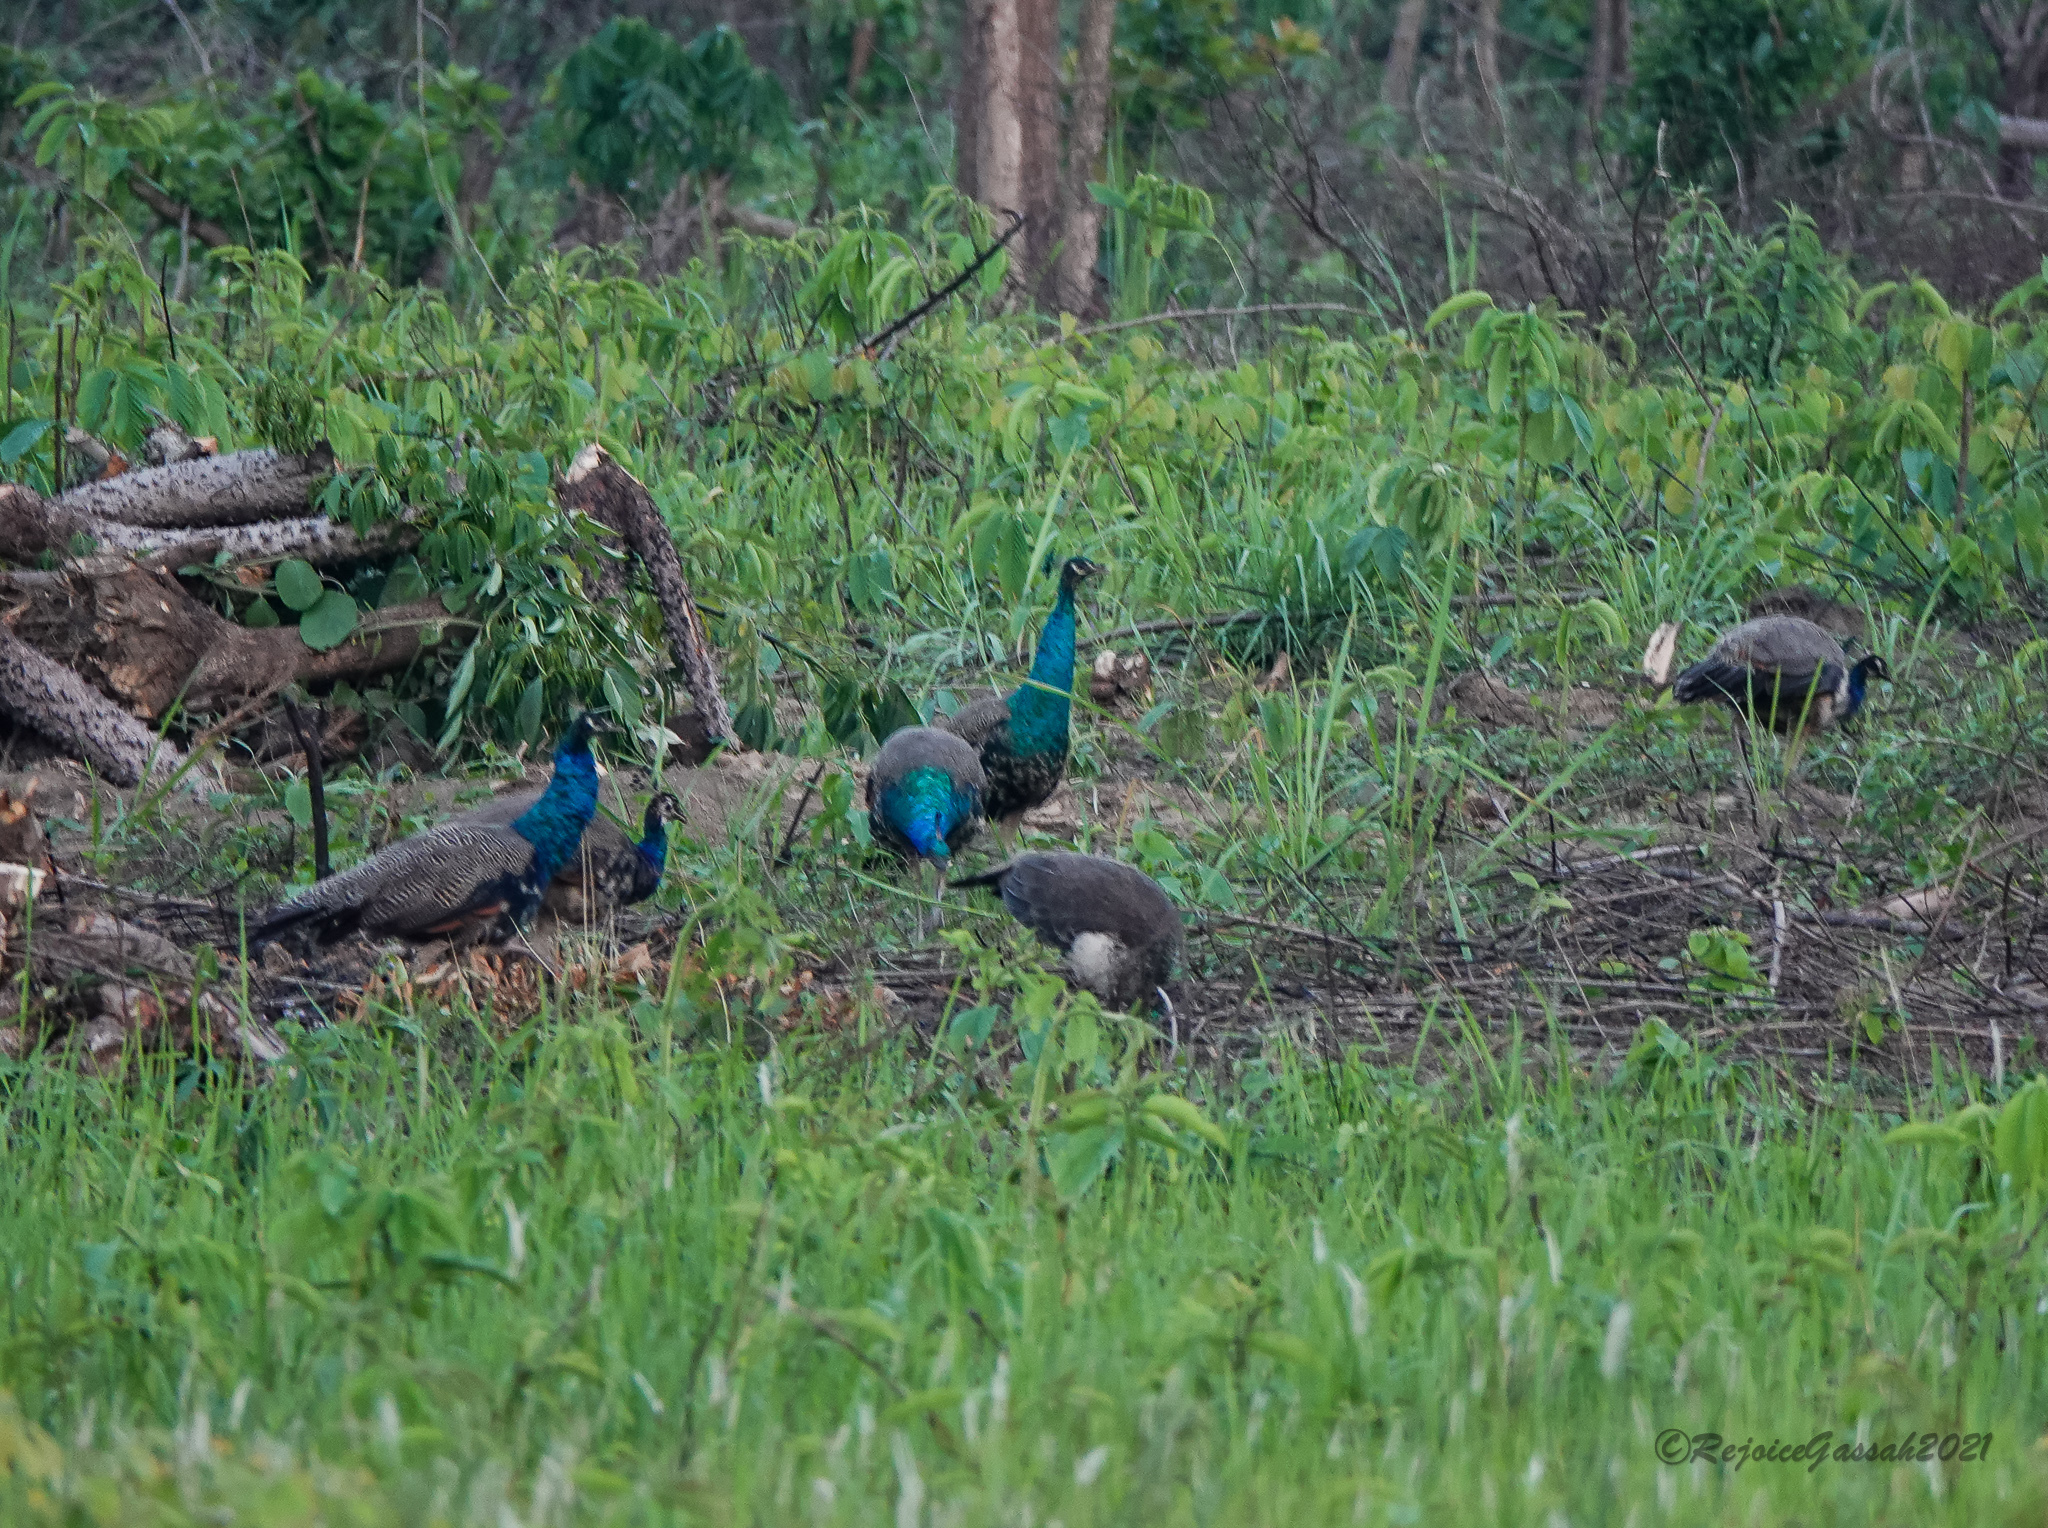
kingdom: Animalia
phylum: Chordata
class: Aves
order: Galliformes
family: Phasianidae
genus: Pavo
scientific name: Pavo cristatus
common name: Indian peafowl
